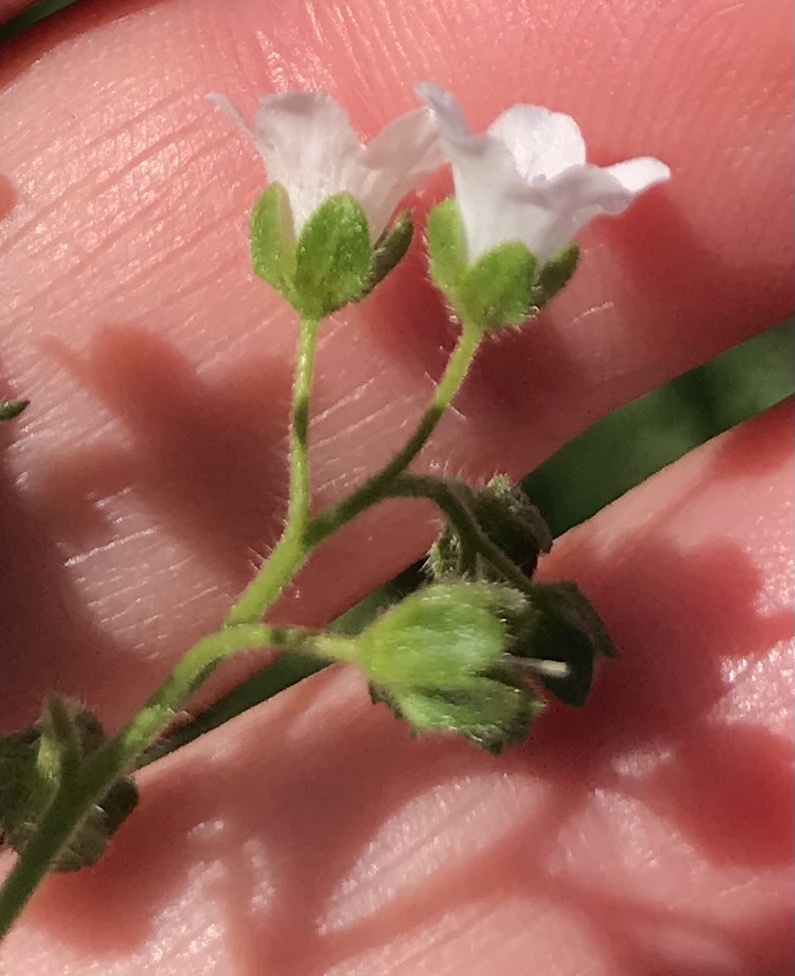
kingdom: Plantae
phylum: Tracheophyta
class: Magnoliopsida
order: Boraginales
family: Hydrophyllaceae
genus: Eucrypta
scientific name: Eucrypta chrysanthemifolia
